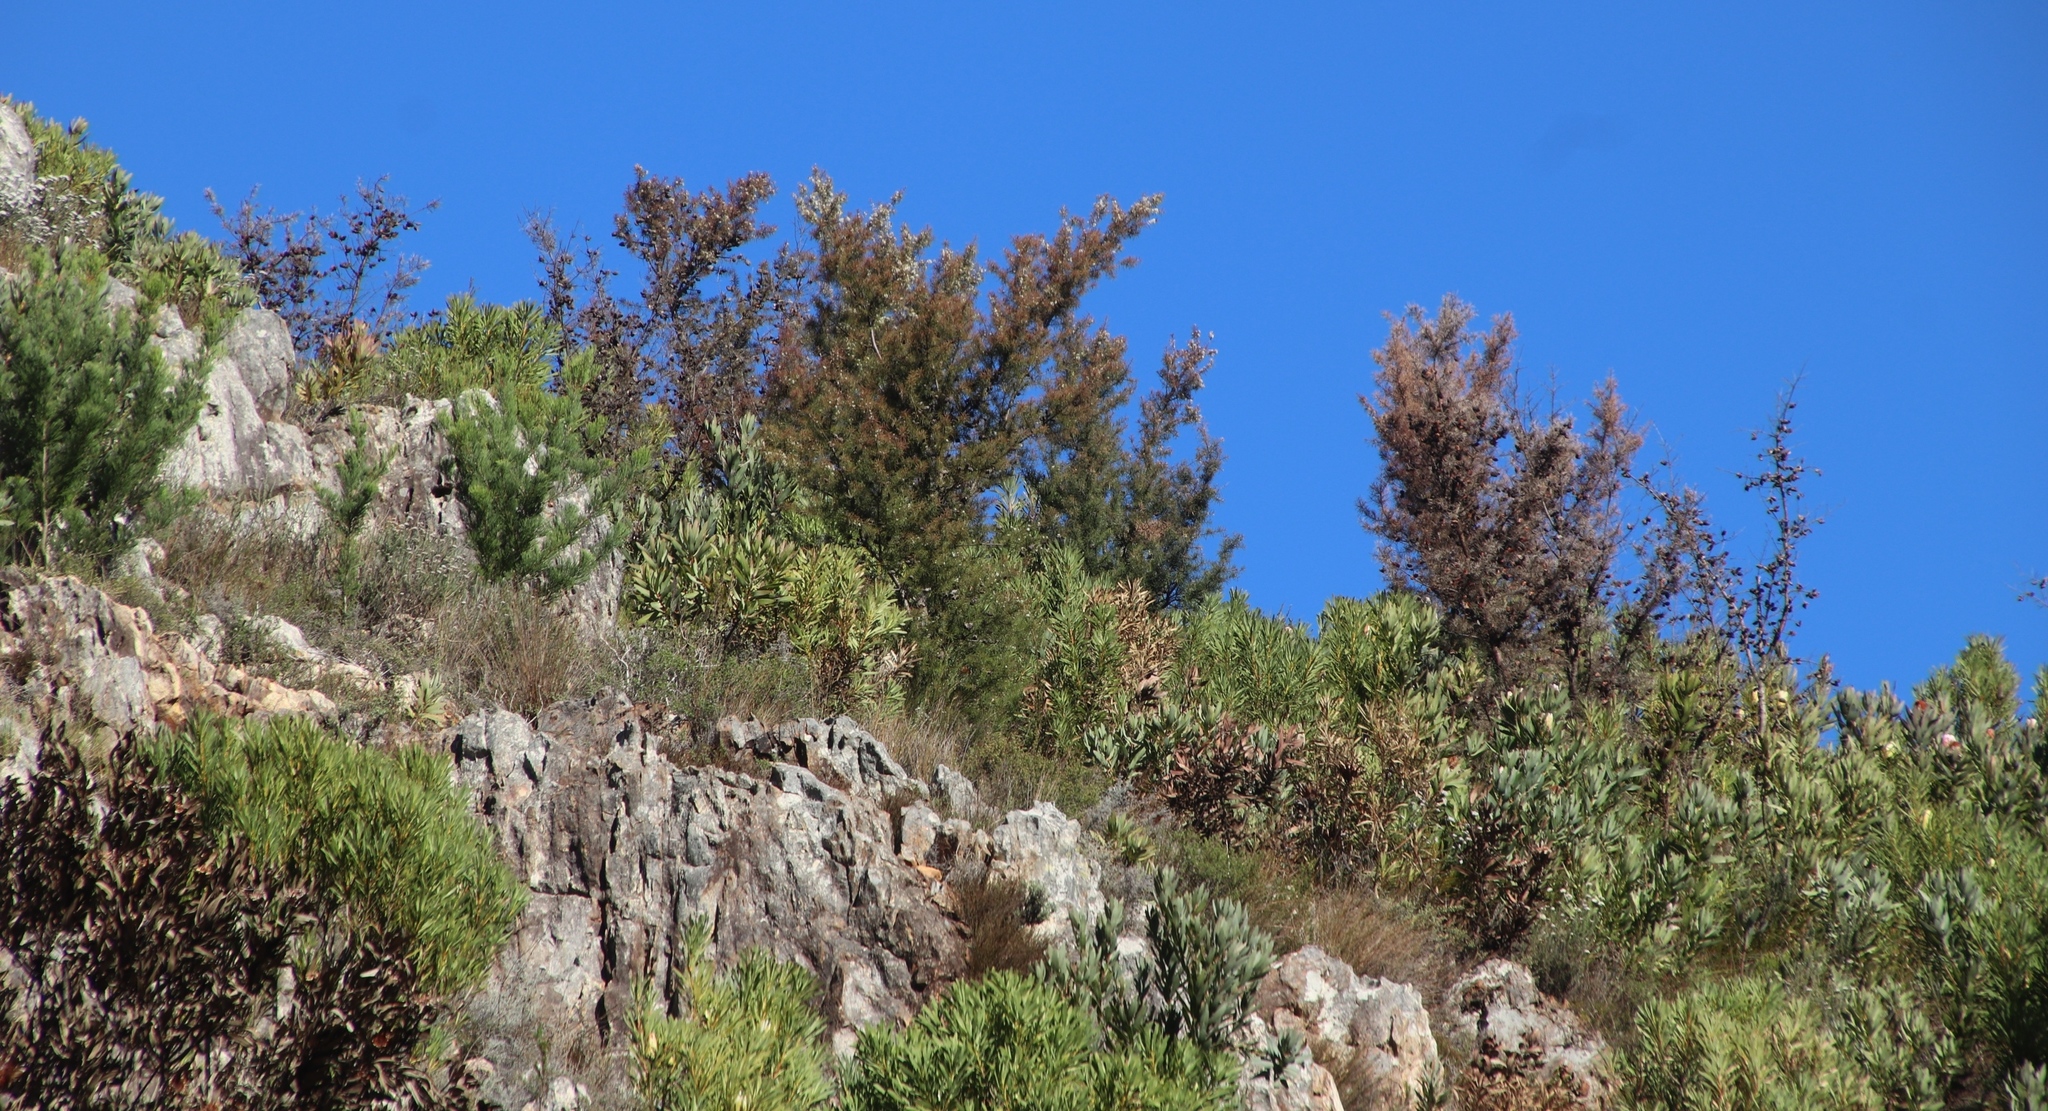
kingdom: Plantae
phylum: Tracheophyta
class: Magnoliopsida
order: Proteales
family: Proteaceae
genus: Hakea
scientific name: Hakea sericea
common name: Needle bush
